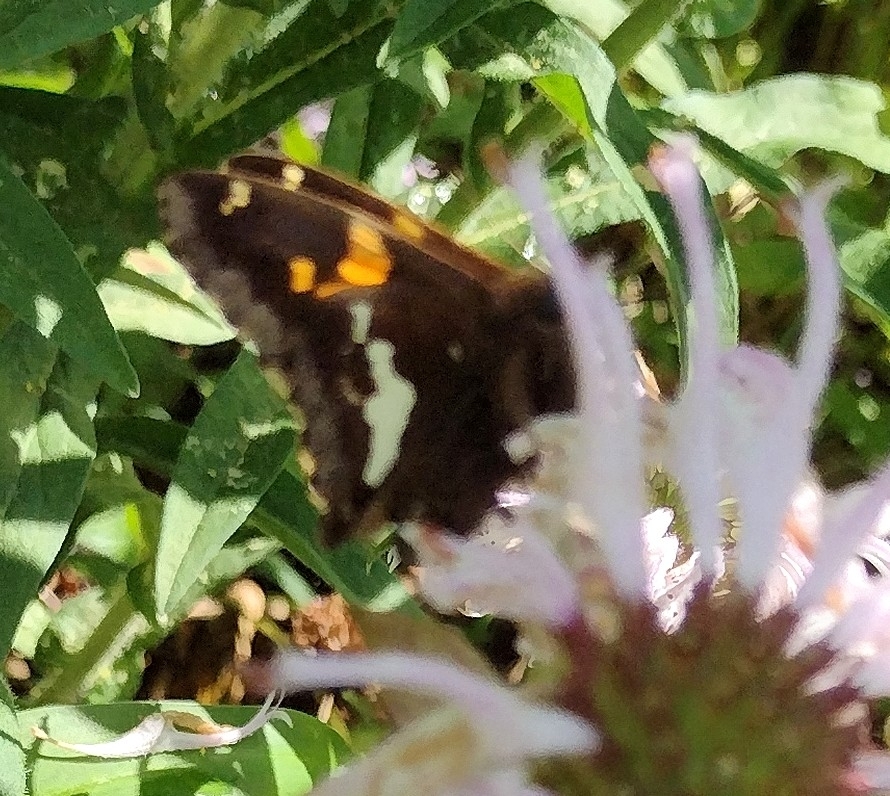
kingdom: Animalia
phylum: Arthropoda
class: Insecta
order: Lepidoptera
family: Hesperiidae
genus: Epargyreus
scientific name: Epargyreus clarus
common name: Silver-spotted skipper
